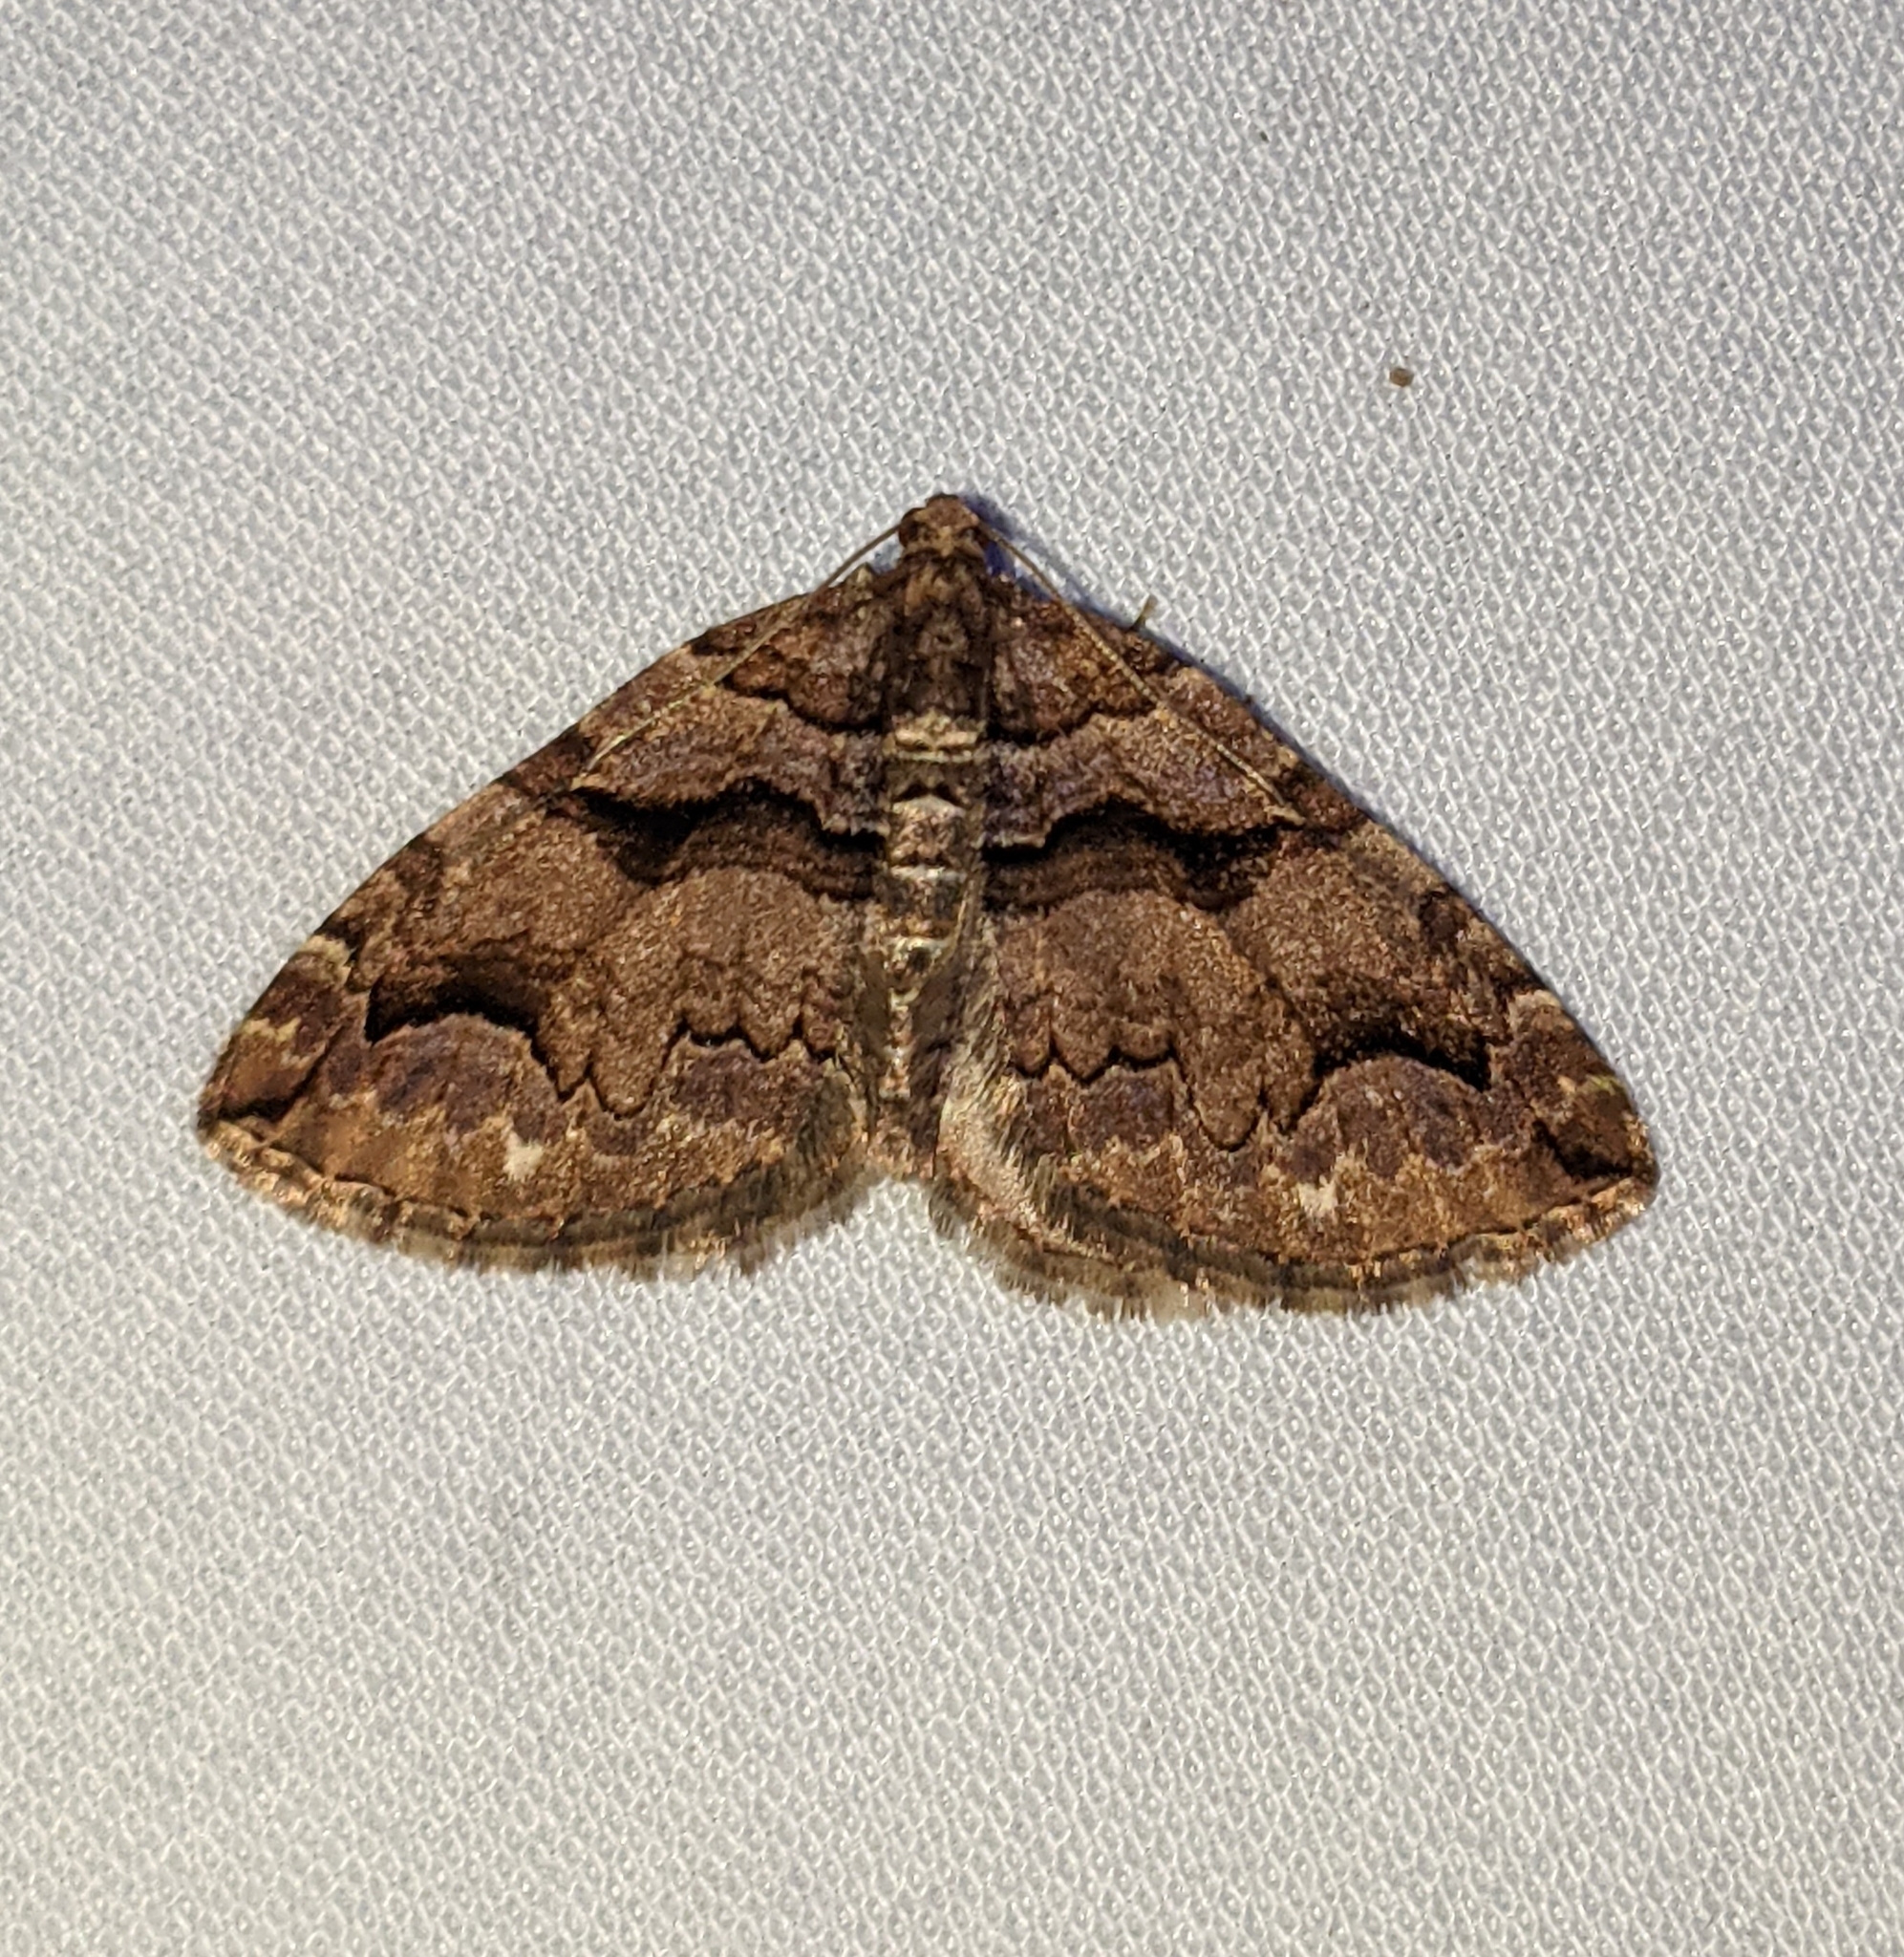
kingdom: Animalia
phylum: Arthropoda
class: Insecta
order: Lepidoptera
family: Geometridae
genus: Anticlea
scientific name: Anticlea vasiliata
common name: Variable carpet
